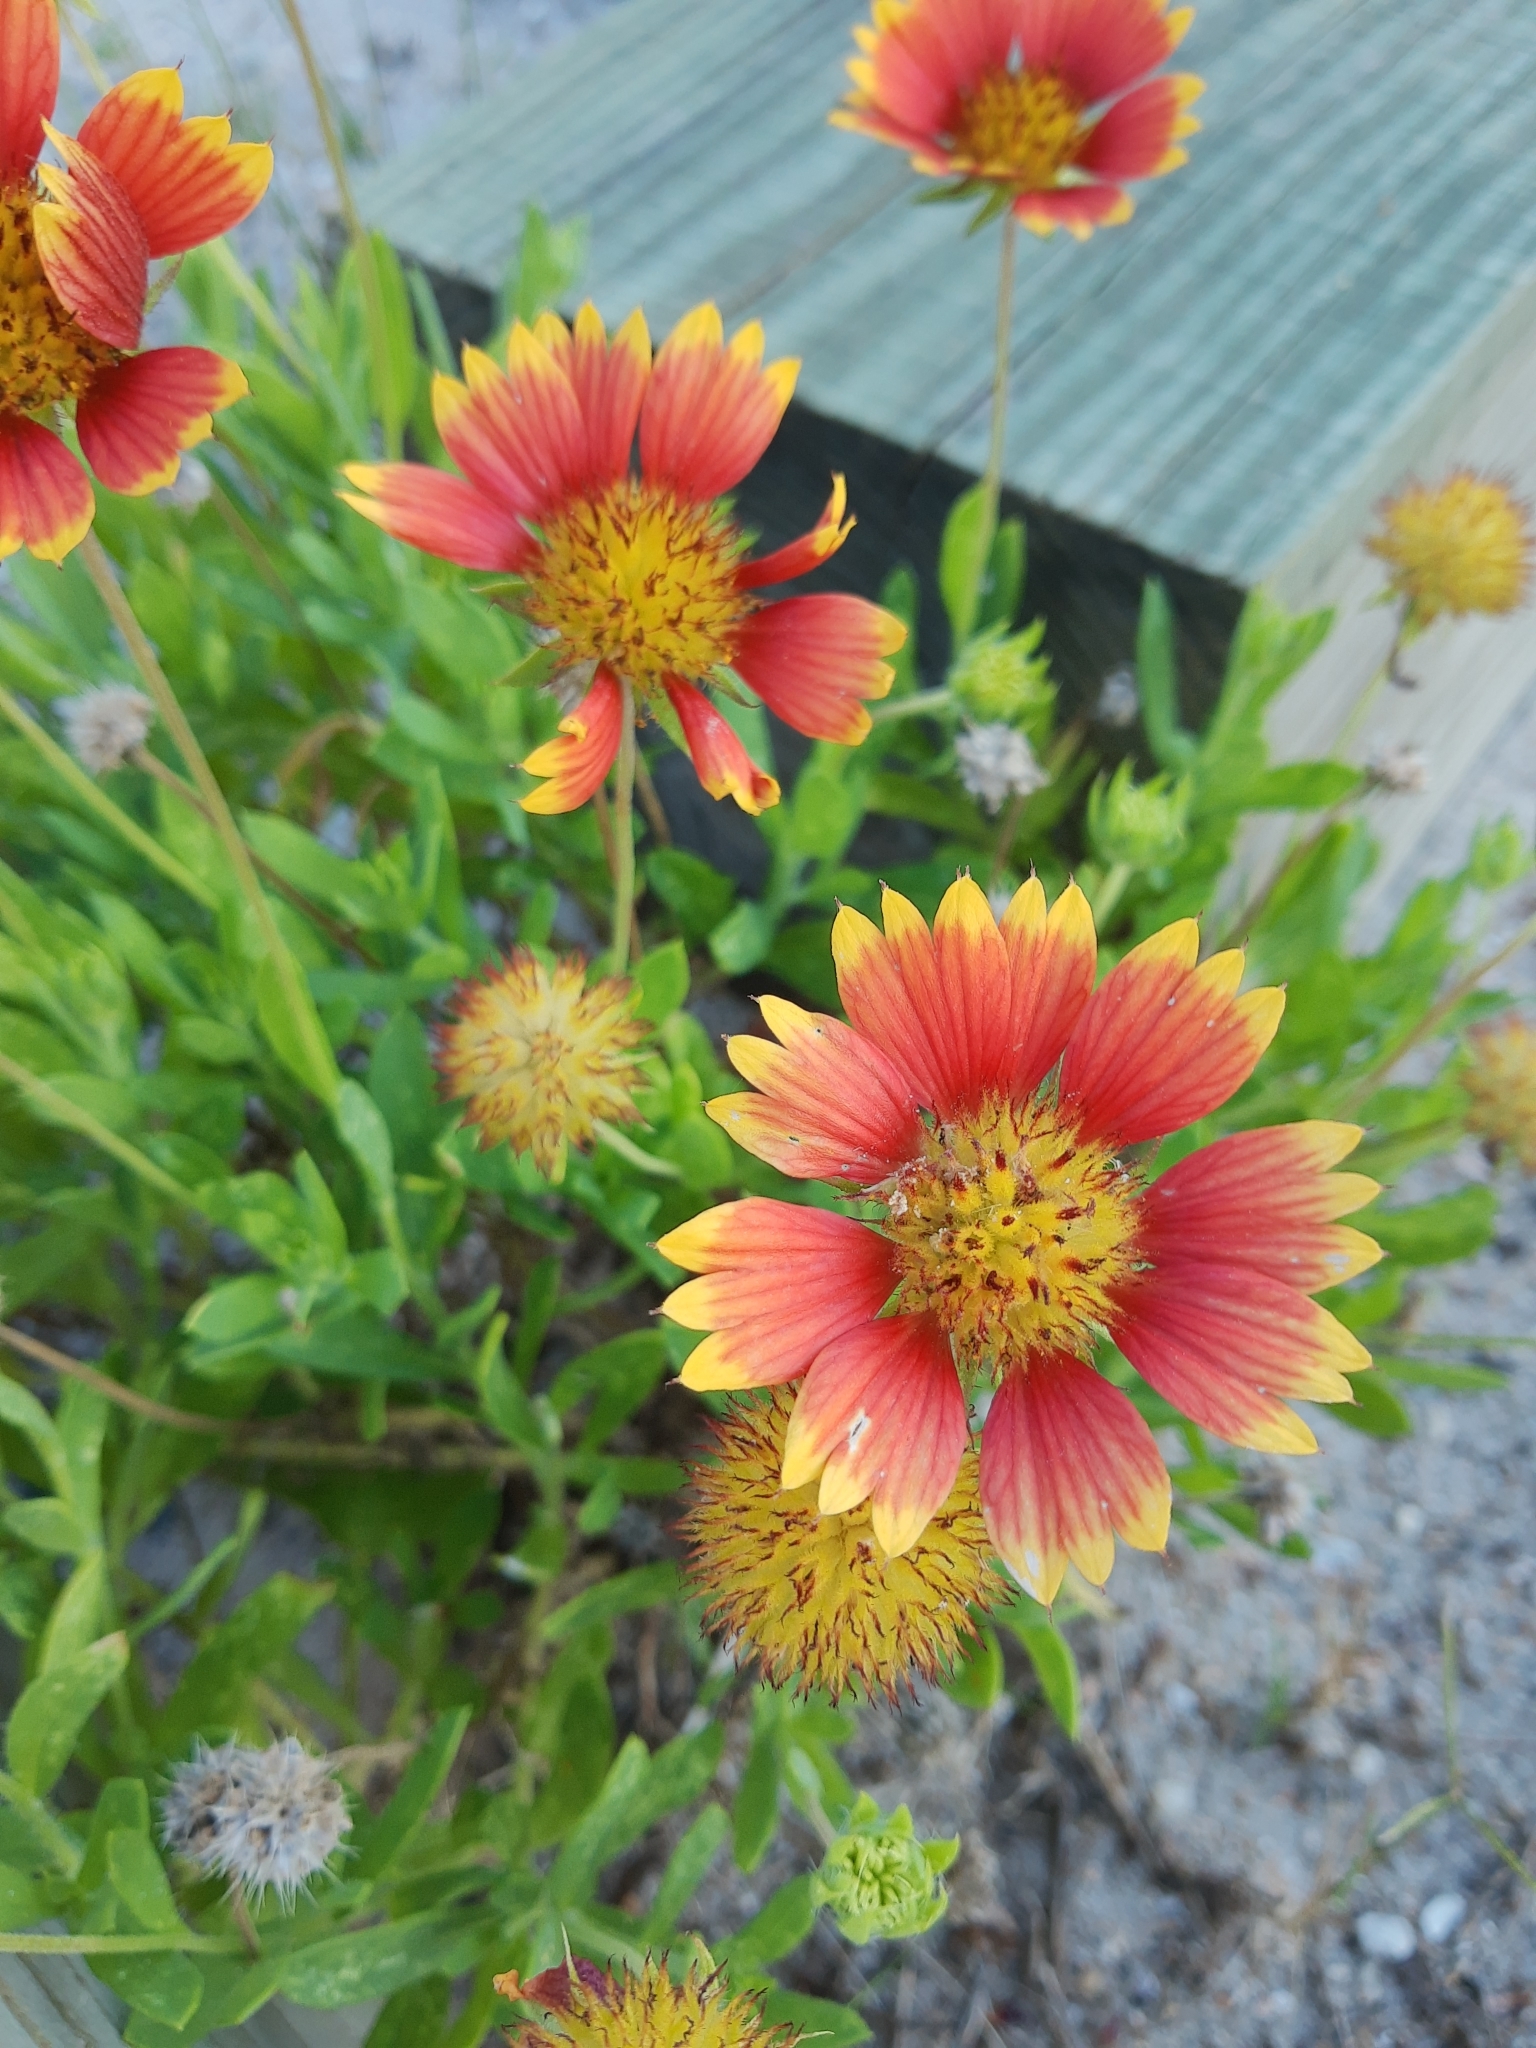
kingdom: Plantae
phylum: Tracheophyta
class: Magnoliopsida
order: Asterales
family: Asteraceae
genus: Gaillardia
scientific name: Gaillardia pulchella
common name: Firewheel
